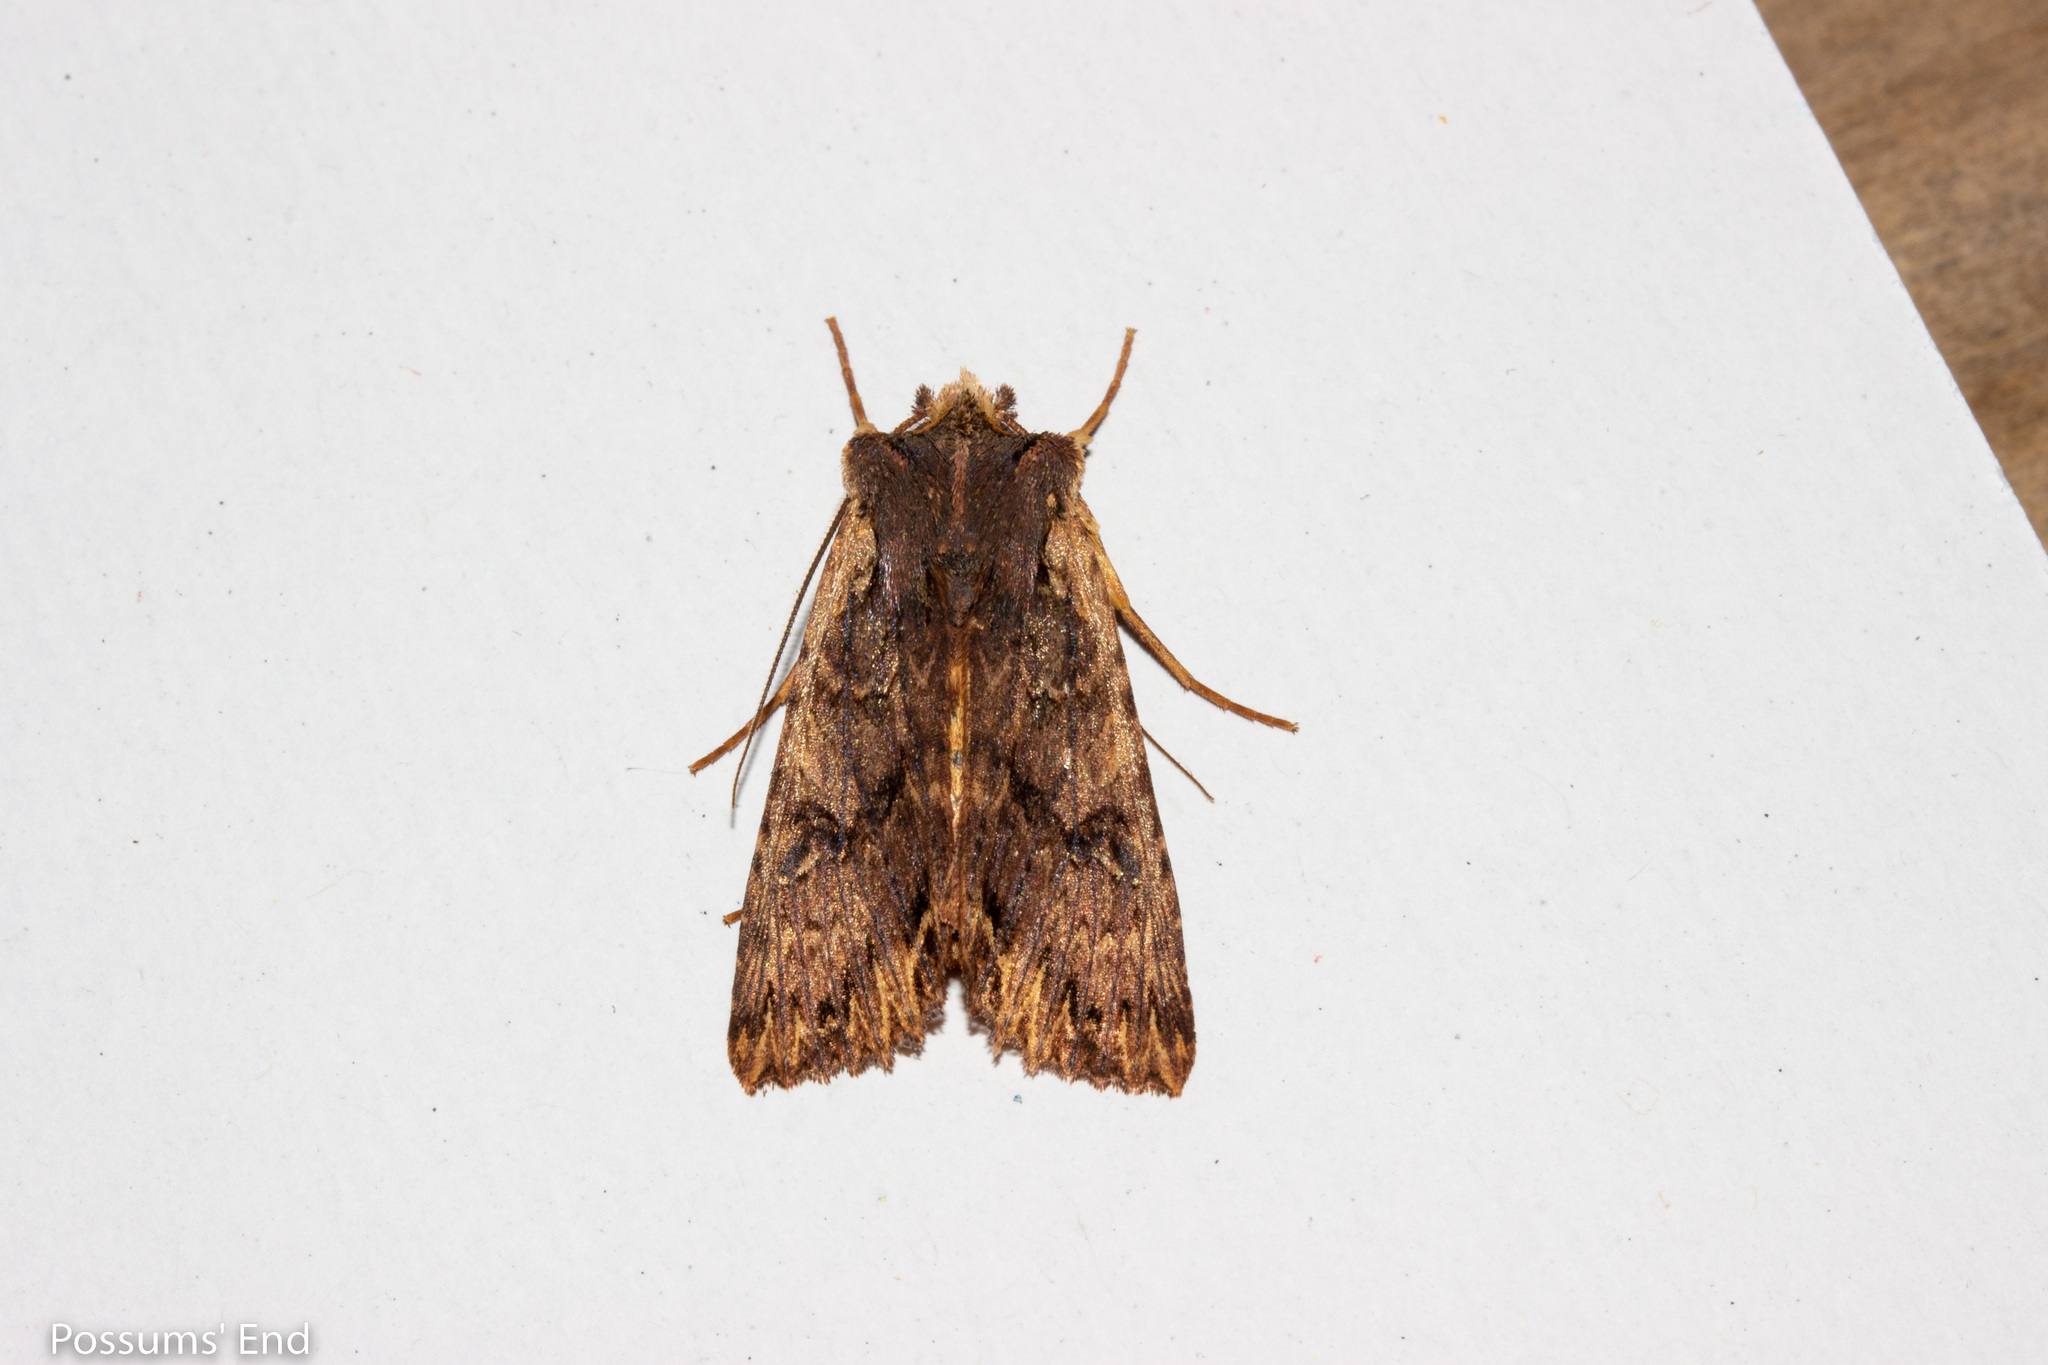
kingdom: Animalia
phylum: Arthropoda
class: Insecta
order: Lepidoptera
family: Noctuidae
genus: Meterana
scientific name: Meterana alcyone
